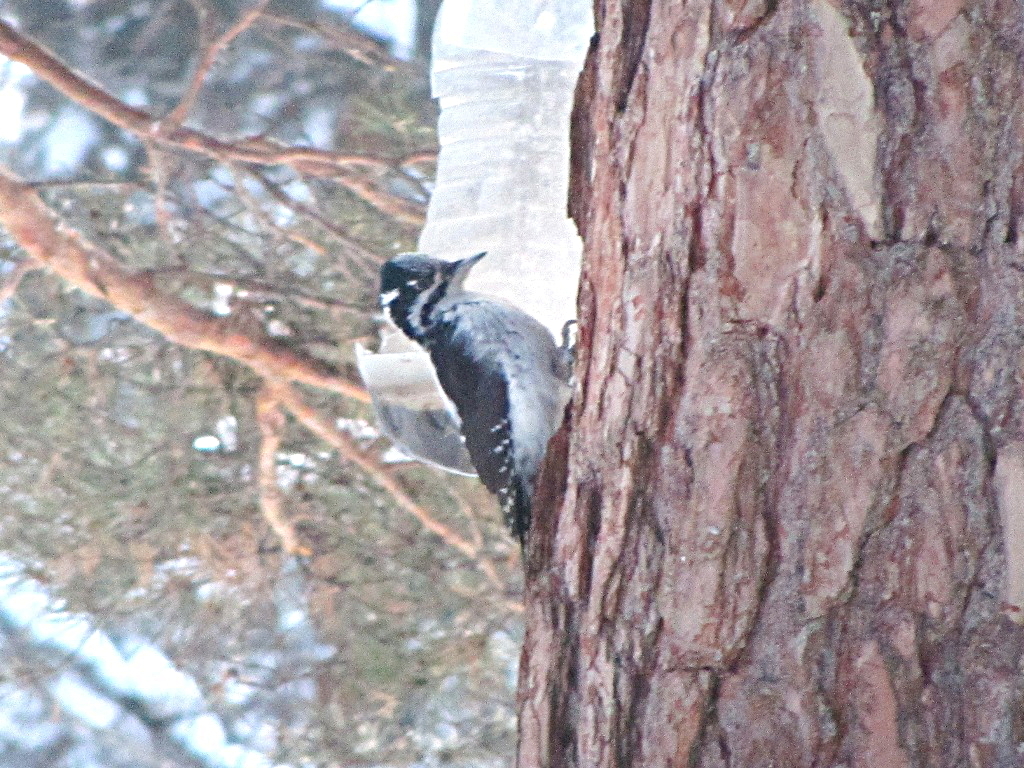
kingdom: Animalia
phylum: Chordata
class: Aves
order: Piciformes
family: Picidae
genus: Picoides
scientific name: Picoides tridactylus
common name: Eurasian three-toed woodpecker
